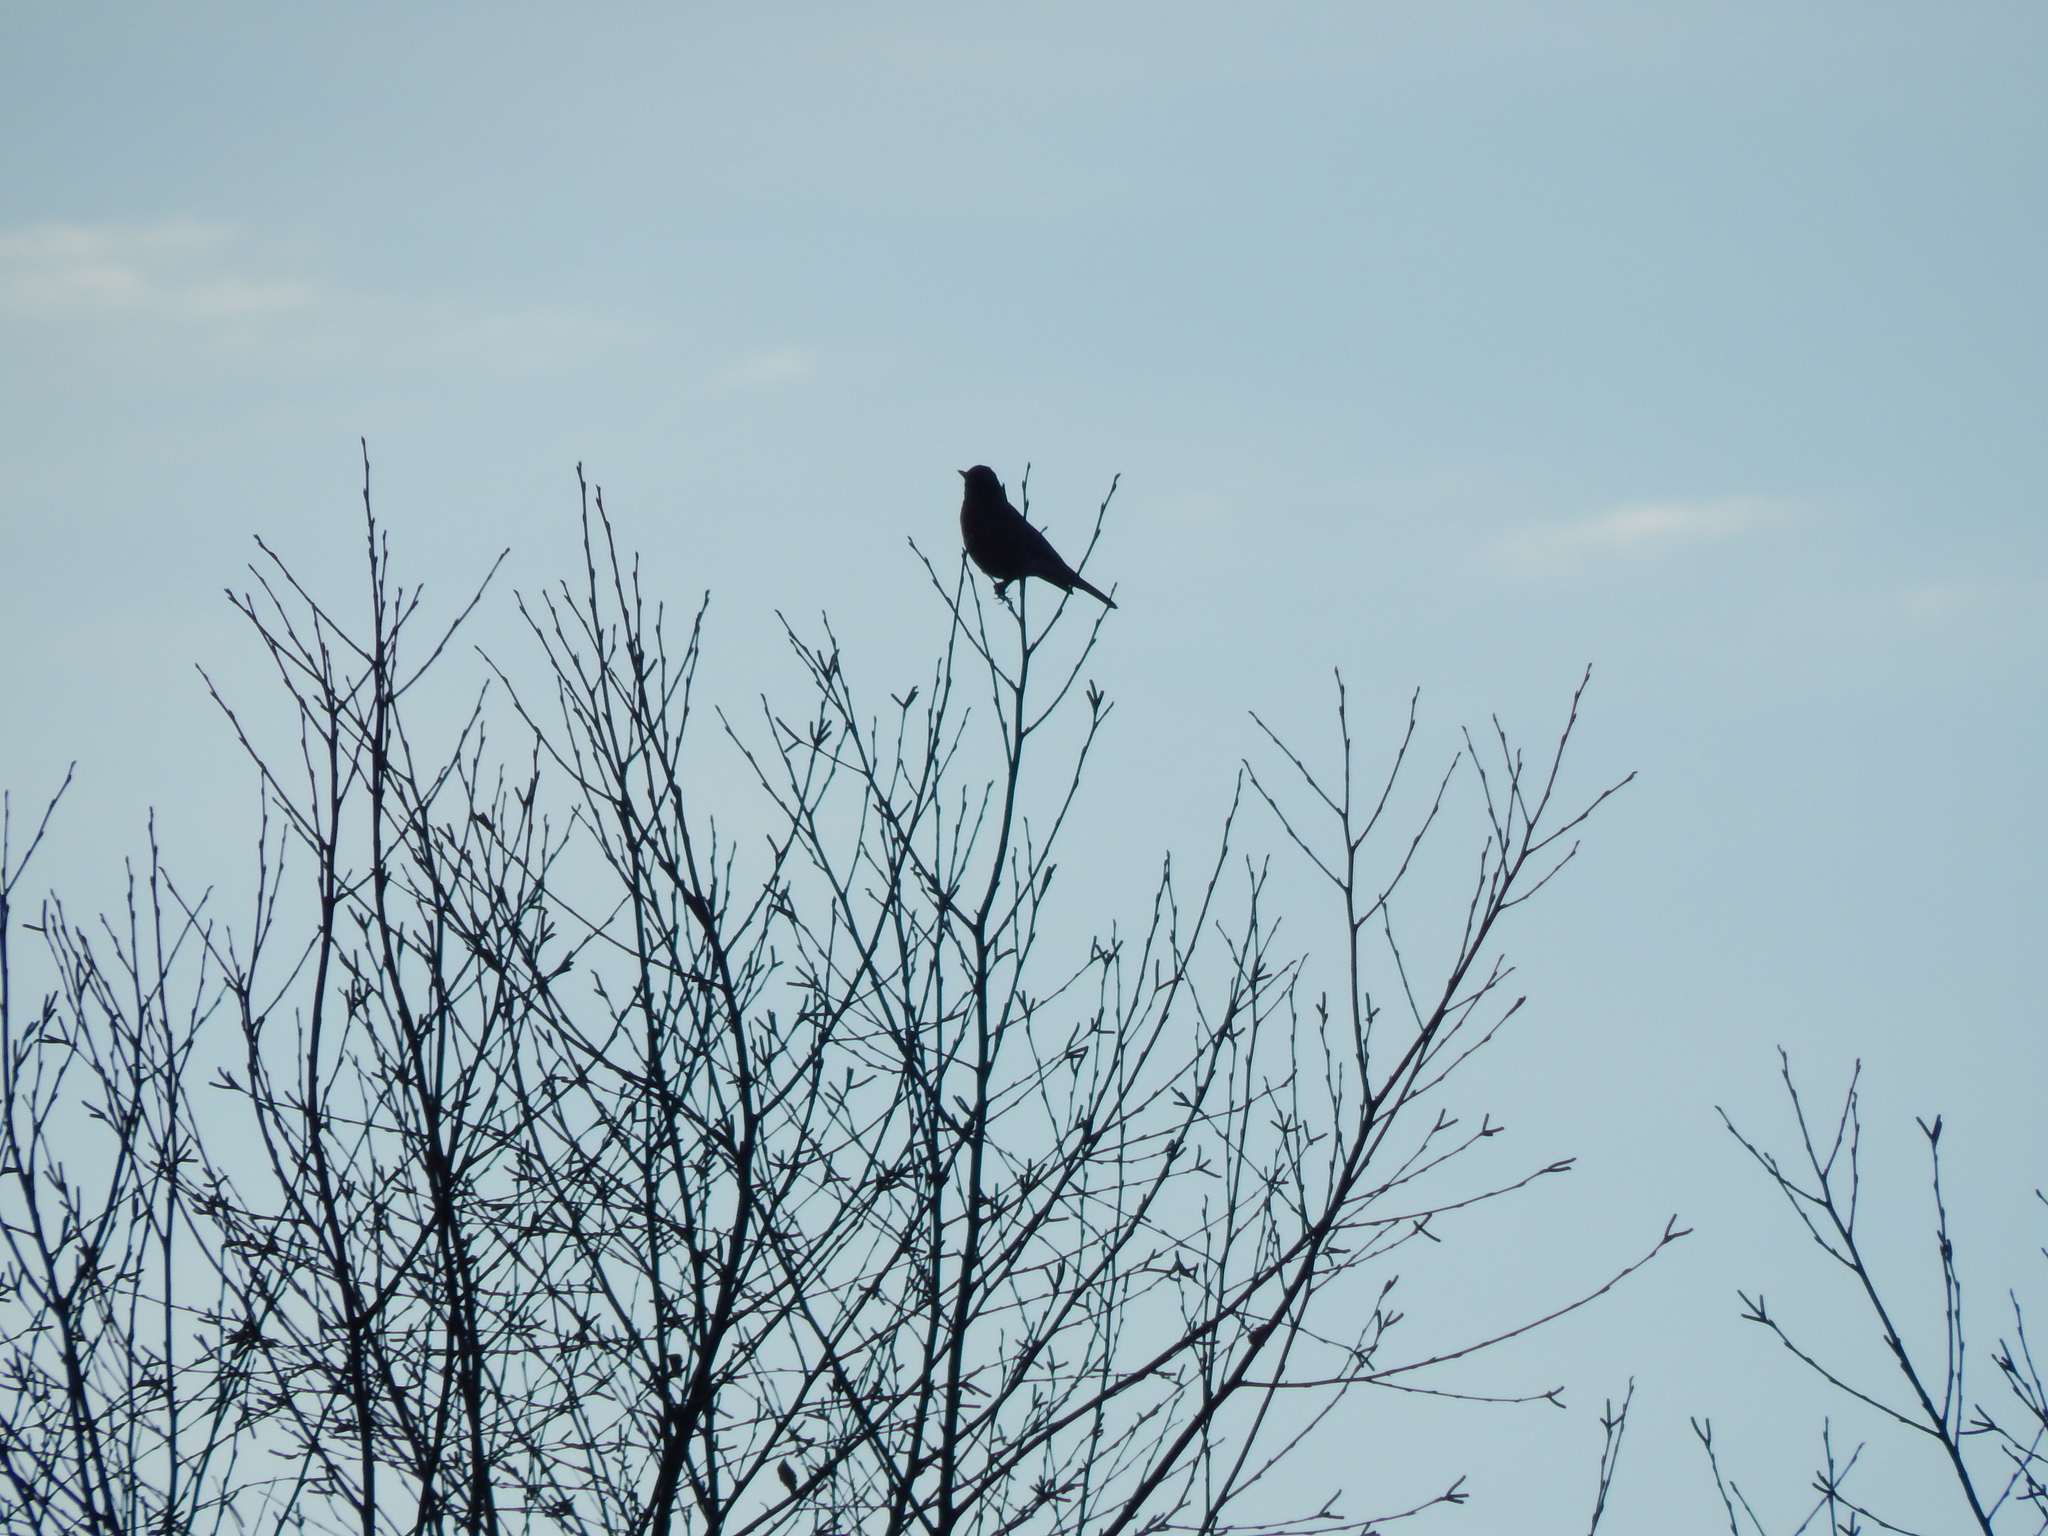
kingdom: Animalia
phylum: Chordata
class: Aves
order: Passeriformes
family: Turdidae
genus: Turdus
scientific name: Turdus migratorius
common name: American robin
